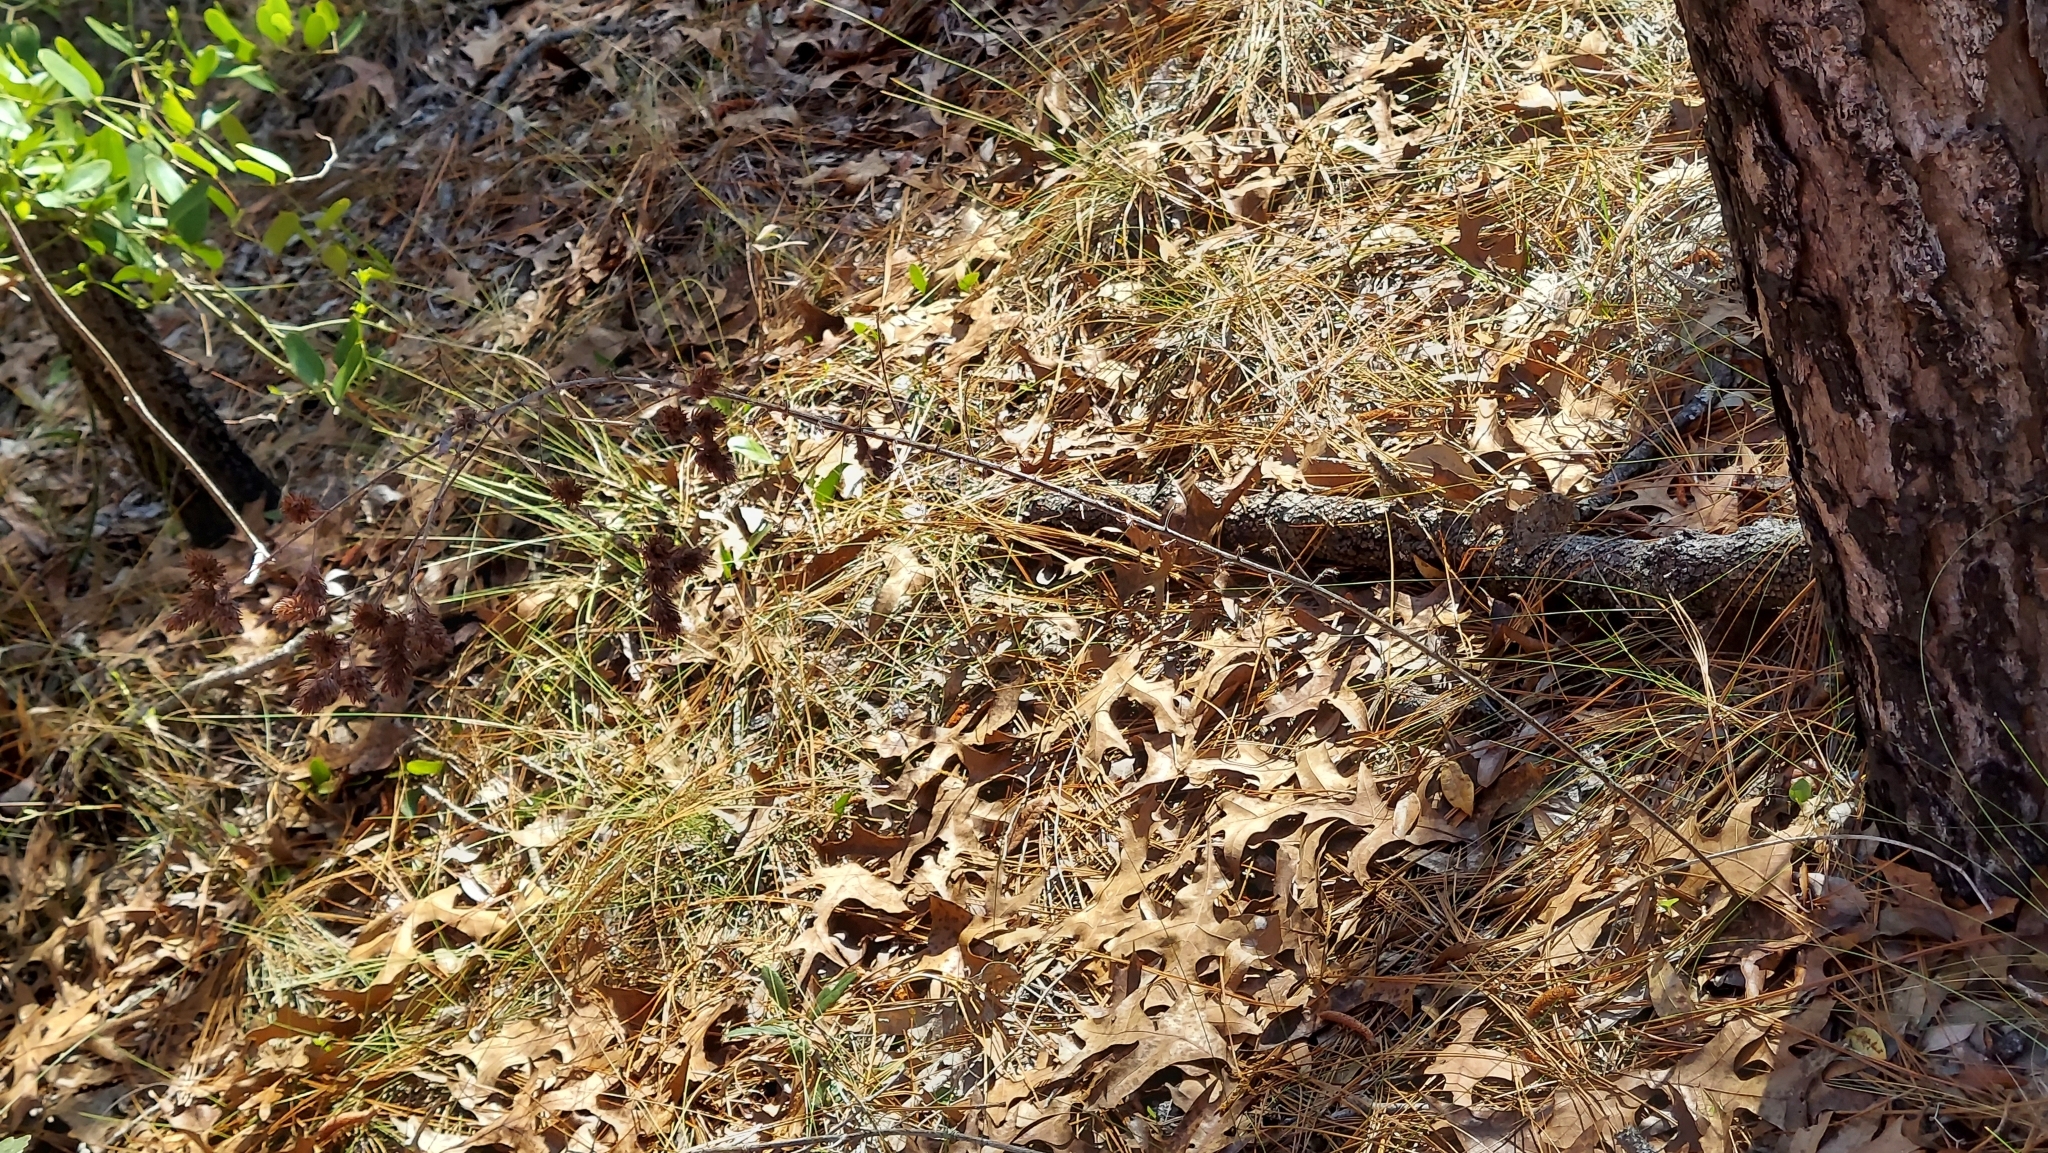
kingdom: Plantae
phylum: Tracheophyta
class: Magnoliopsida
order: Fabales
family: Fabaceae
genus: Lespedeza
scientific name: Lespedeza hirta
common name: Hairy lespedeza
